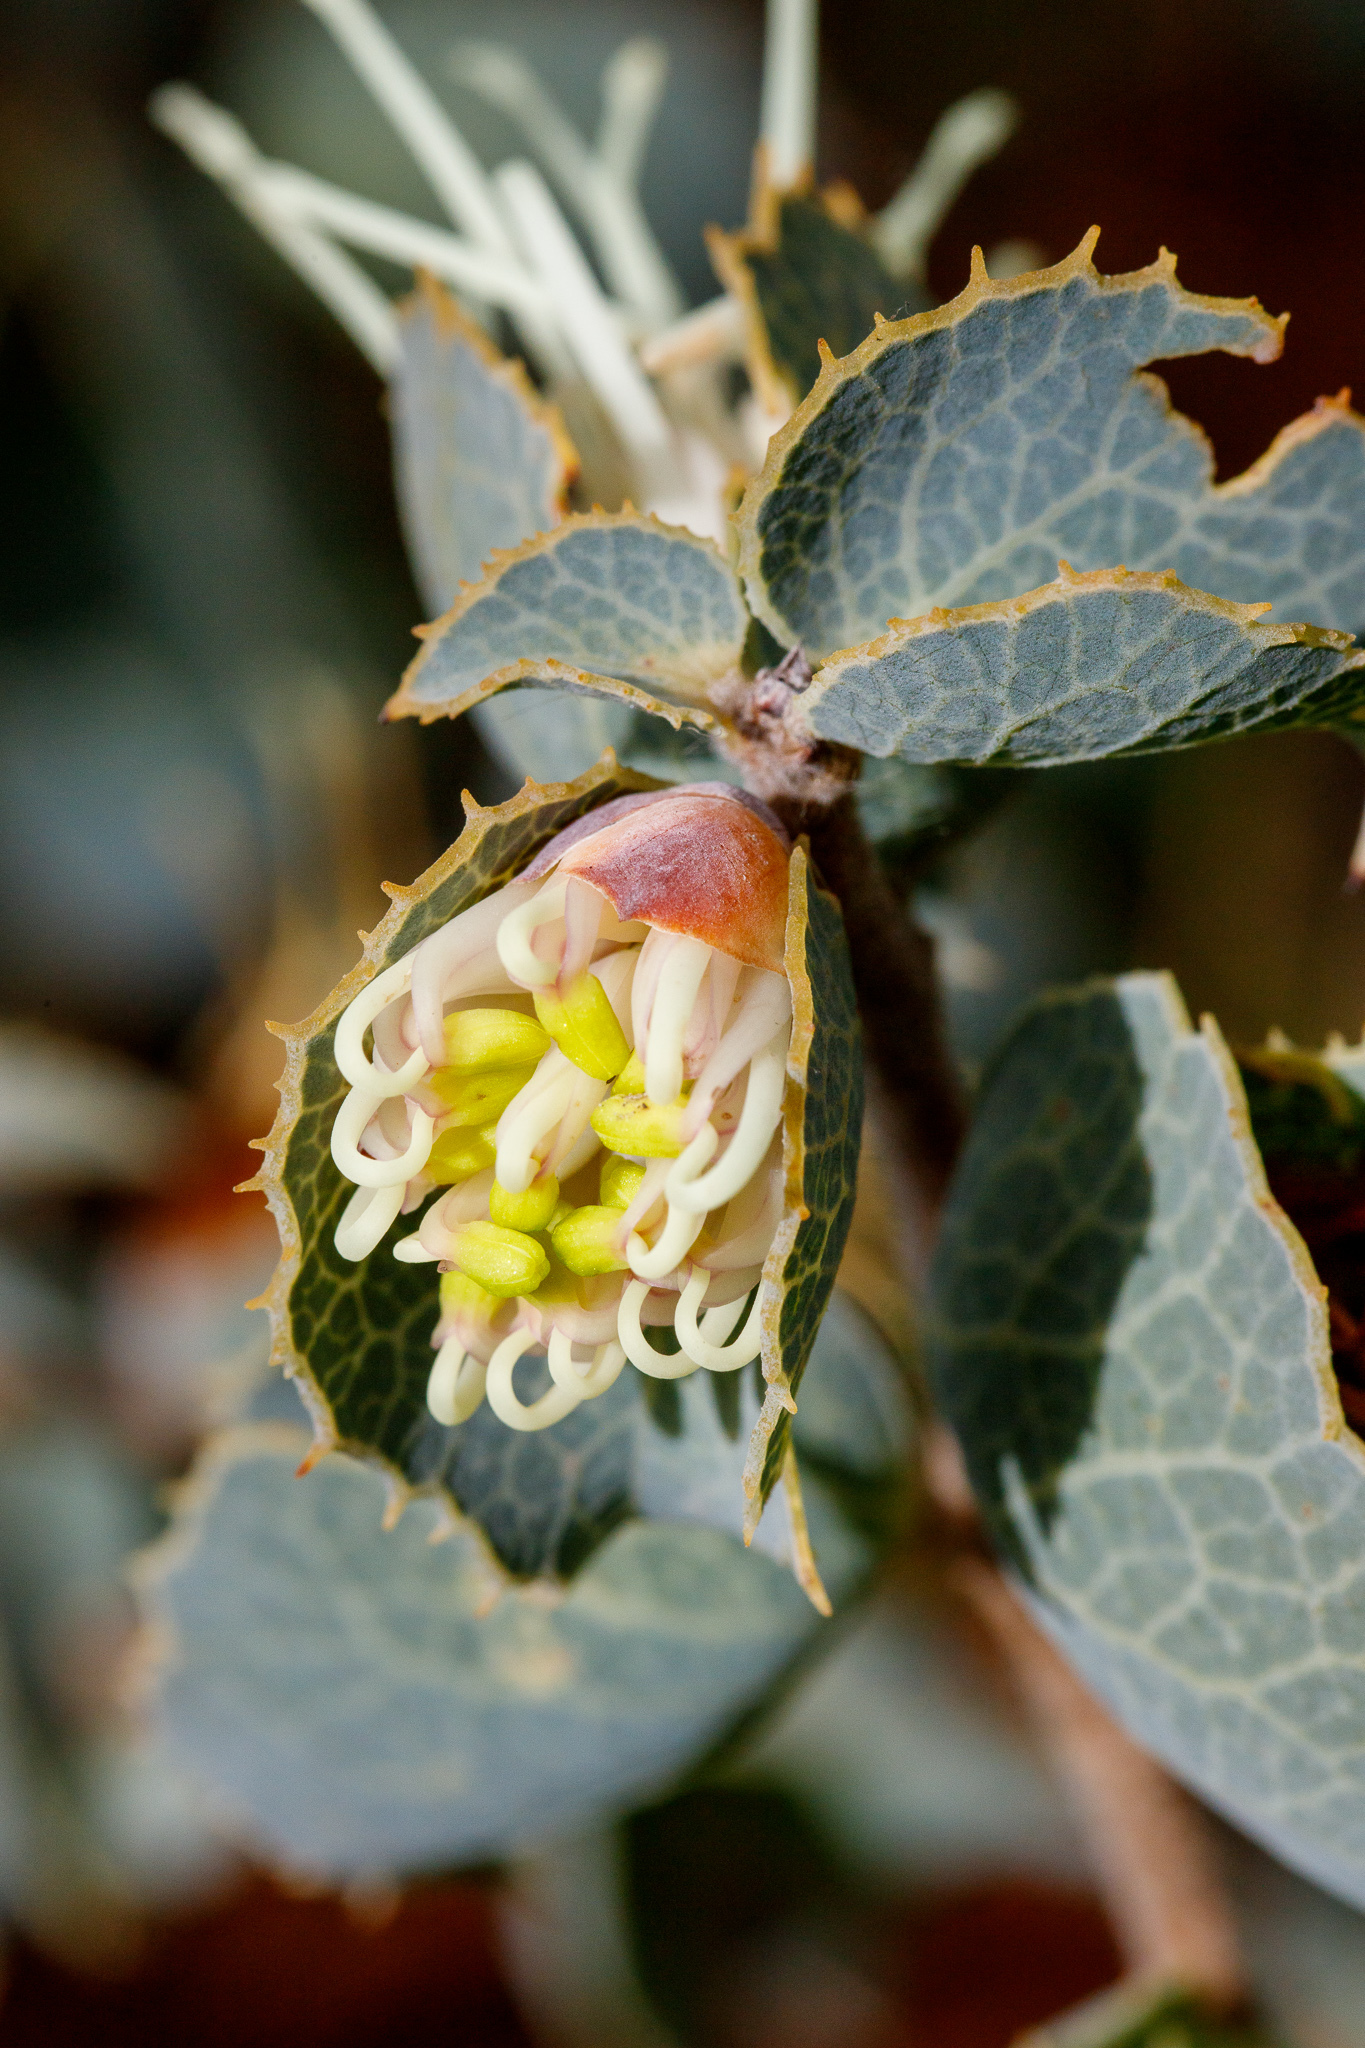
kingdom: Plantae
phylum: Tracheophyta
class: Magnoliopsida
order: Proteales
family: Proteaceae
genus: Hakea
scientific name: Hakea conchifolia
